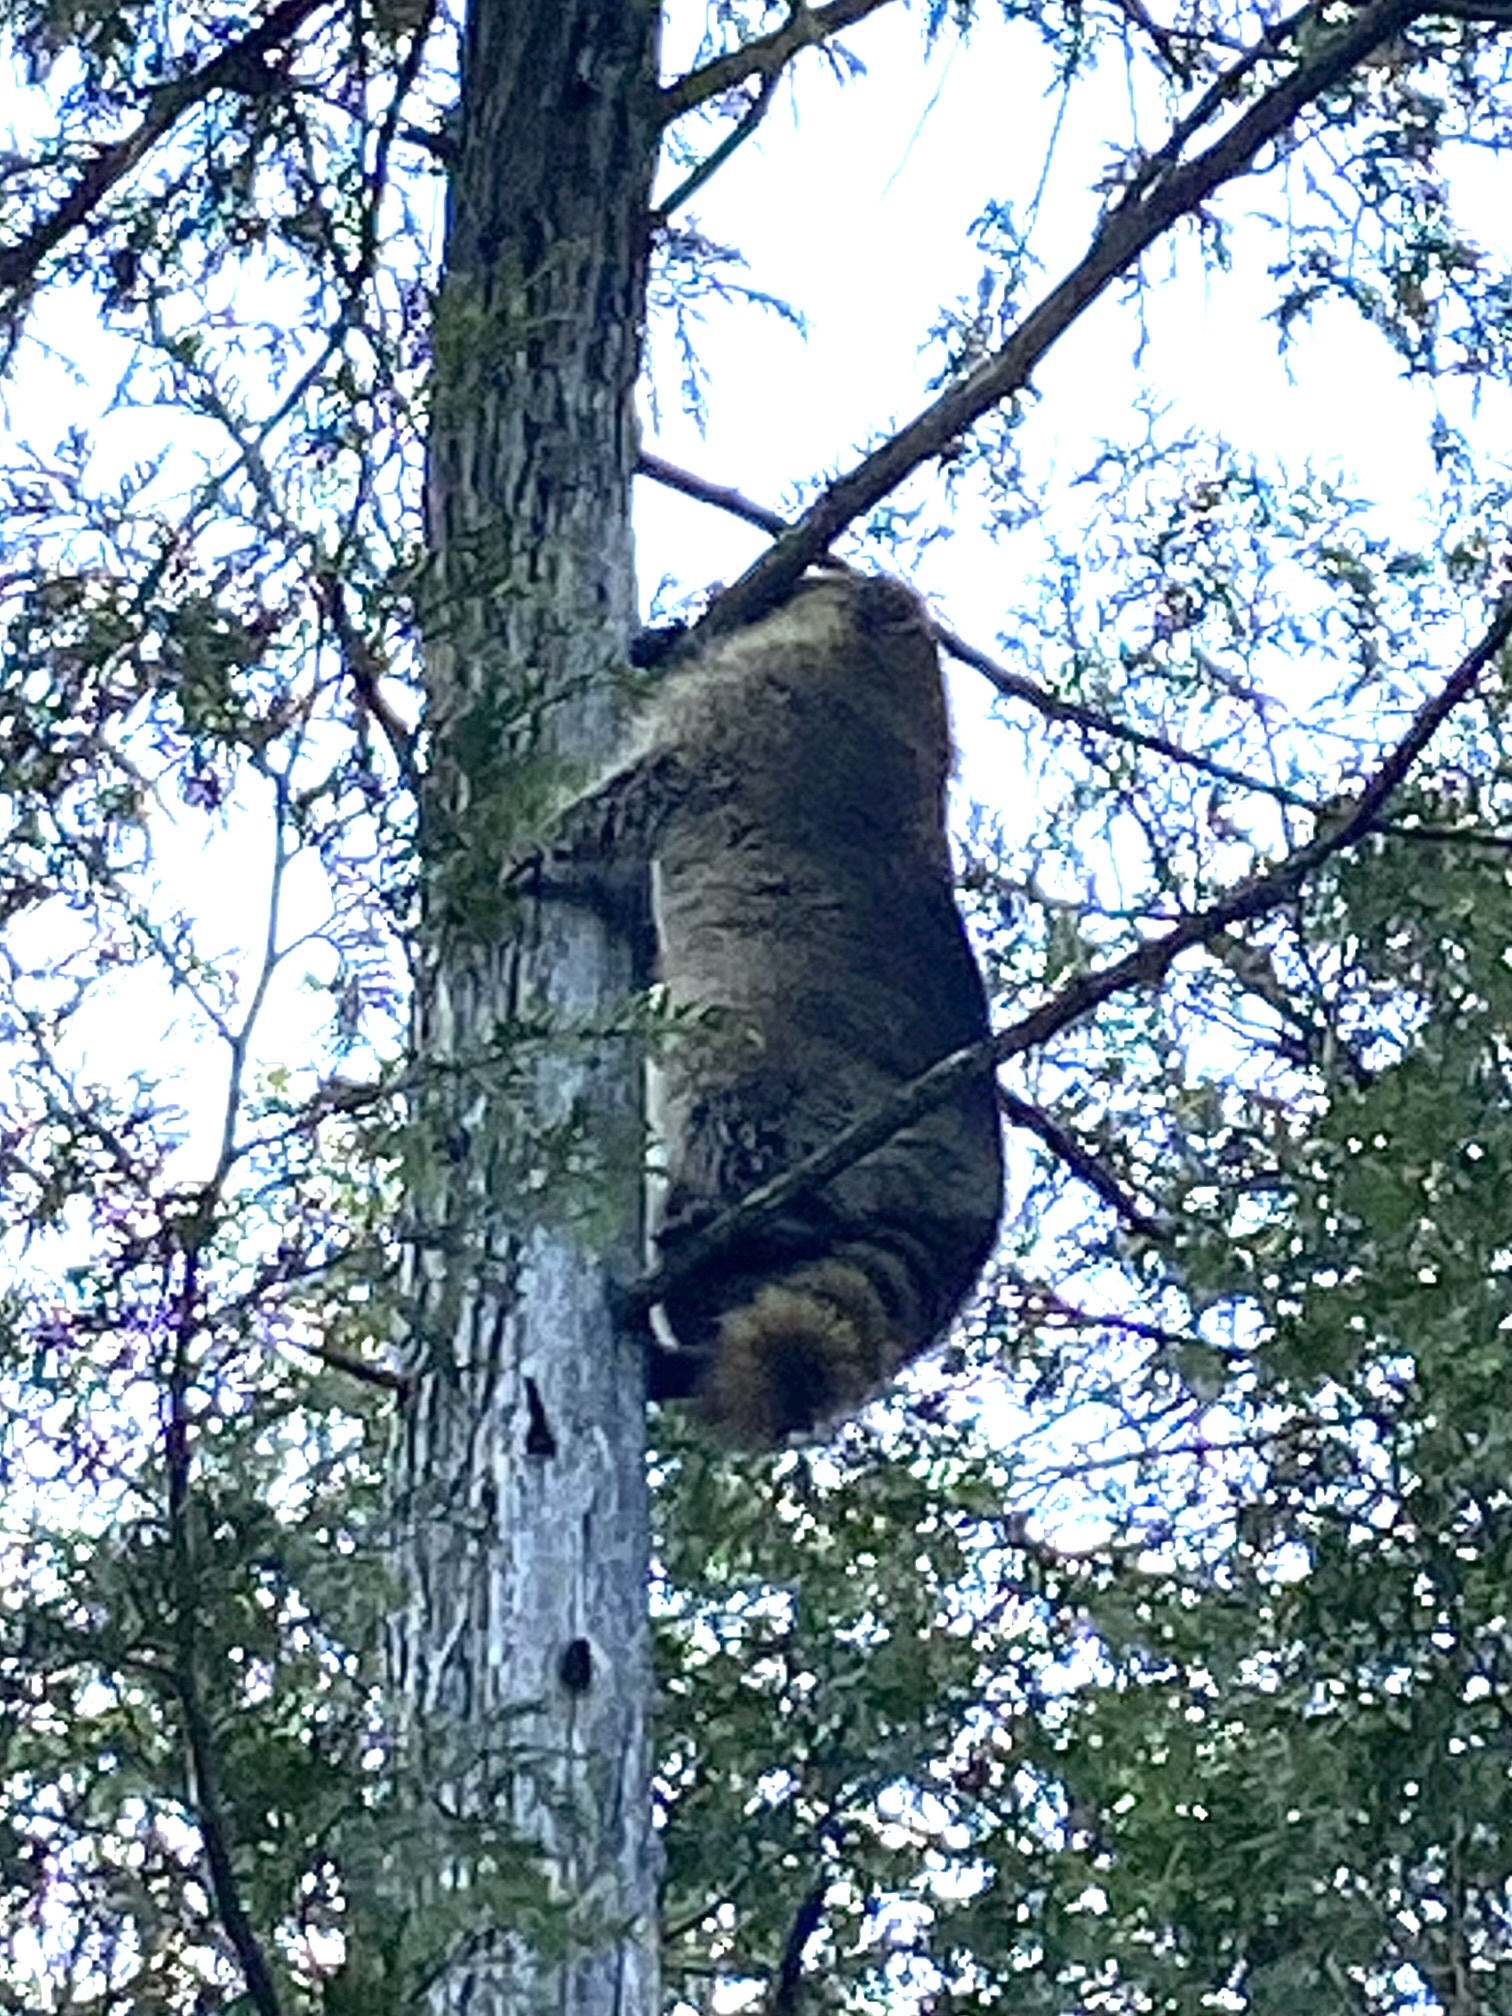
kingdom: Animalia
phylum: Chordata
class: Mammalia
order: Carnivora
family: Procyonidae
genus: Procyon
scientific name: Procyon lotor
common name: Raccoon
